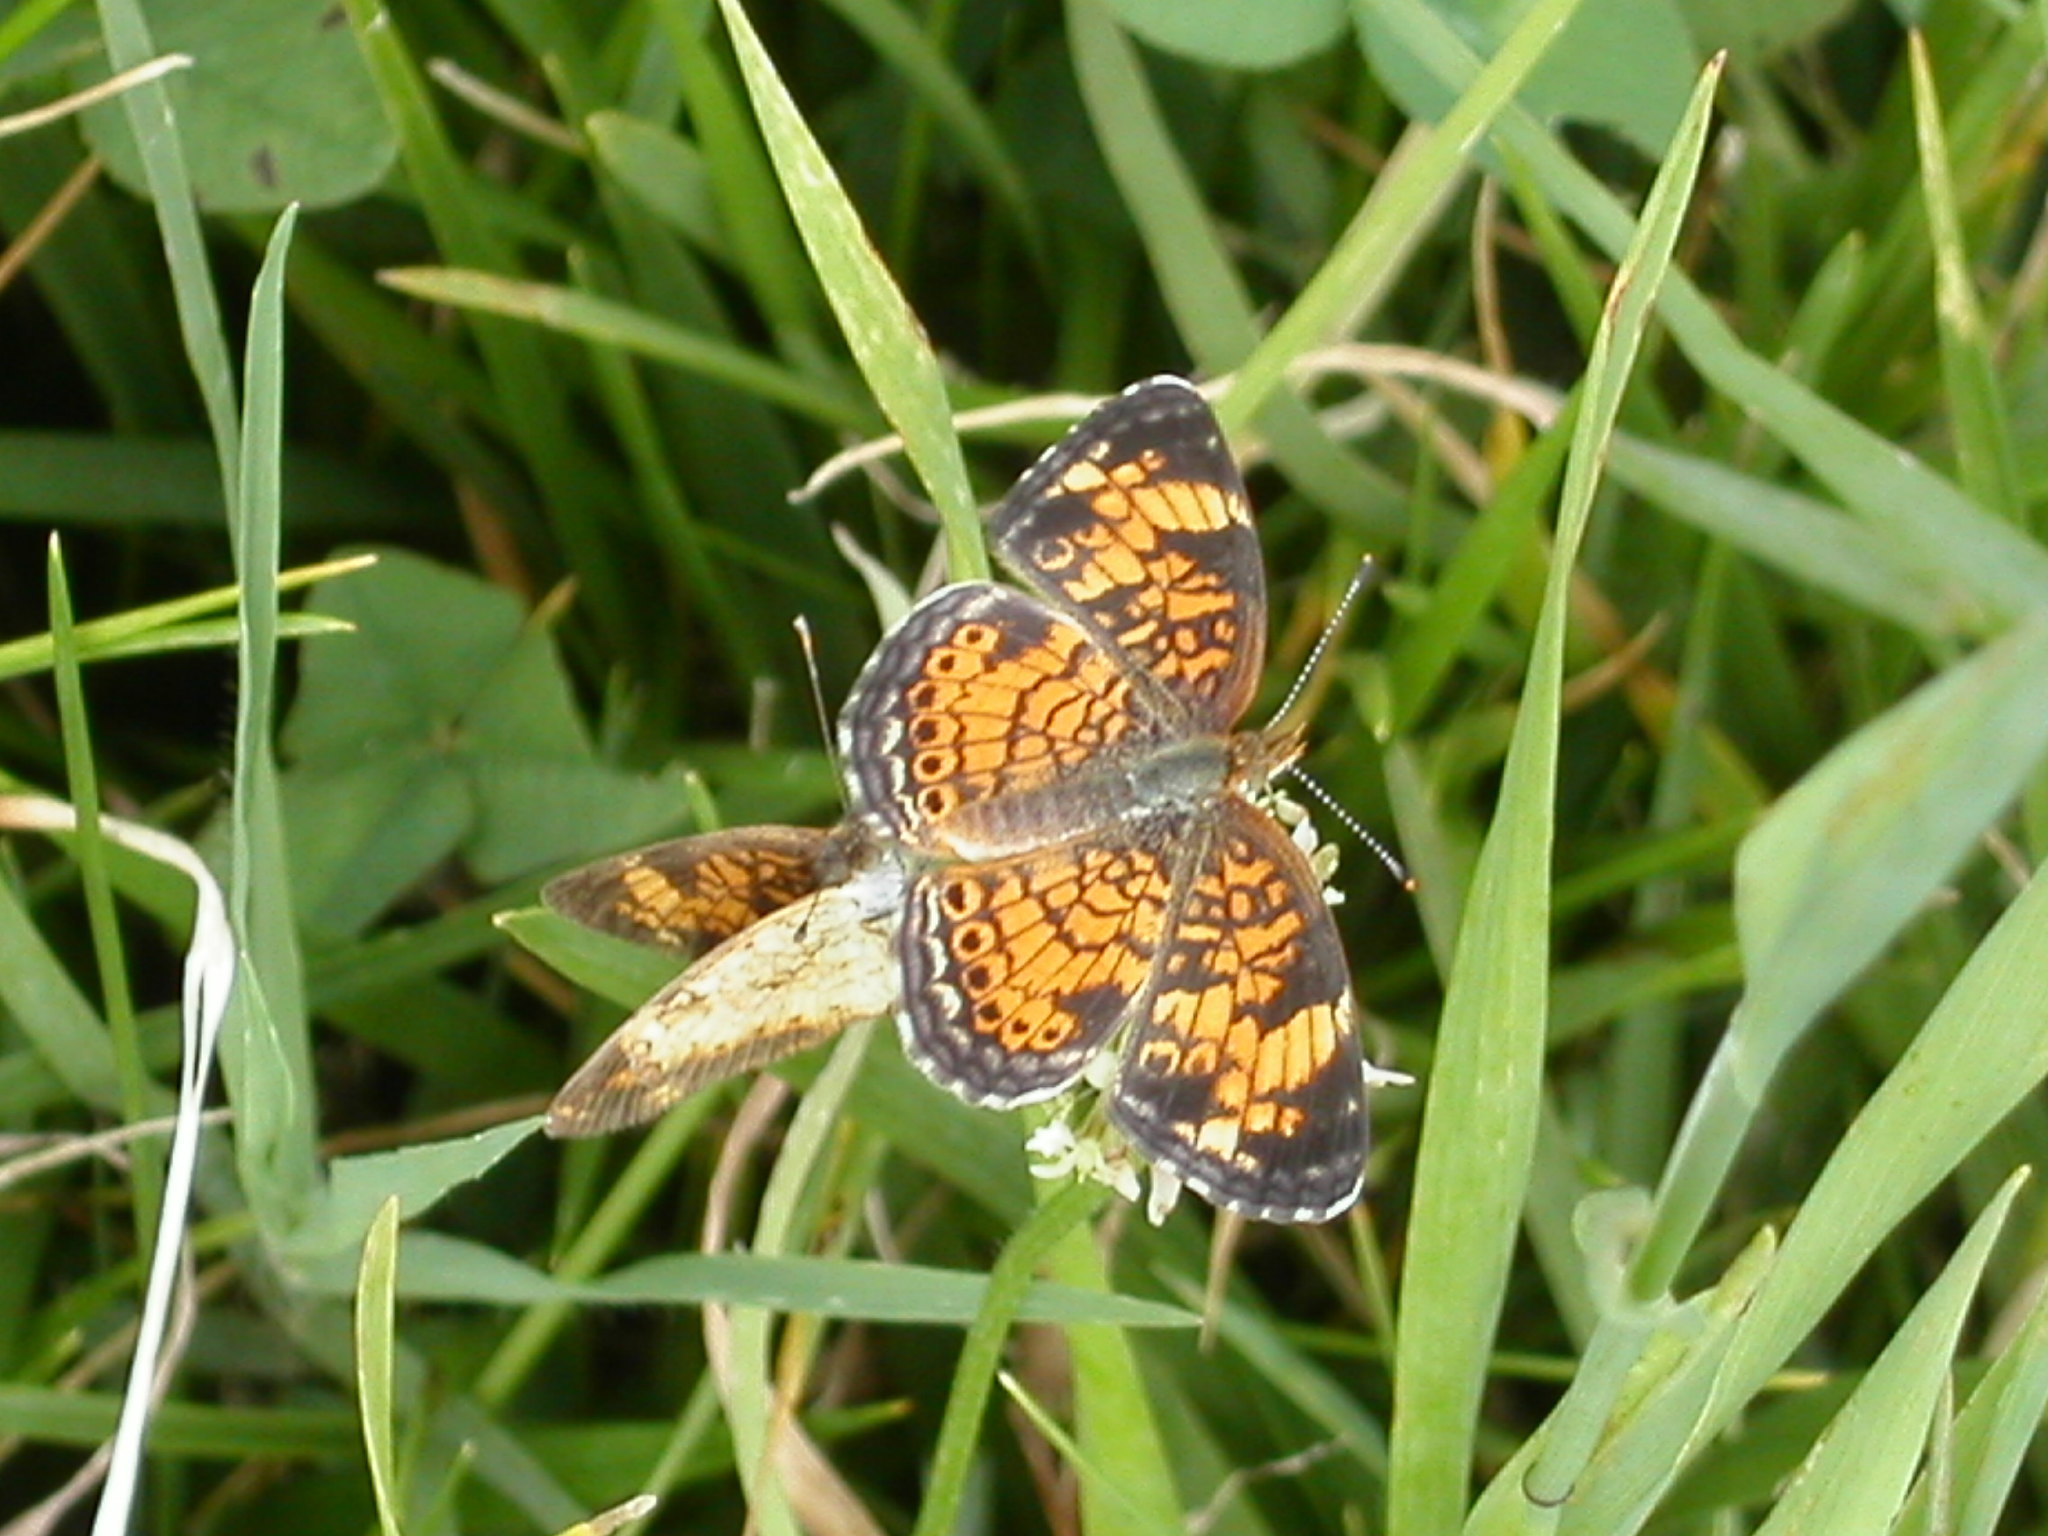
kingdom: Animalia
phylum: Arthropoda
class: Insecta
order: Lepidoptera
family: Nymphalidae
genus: Phyciodes
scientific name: Phyciodes tharos
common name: Pearl crescent
